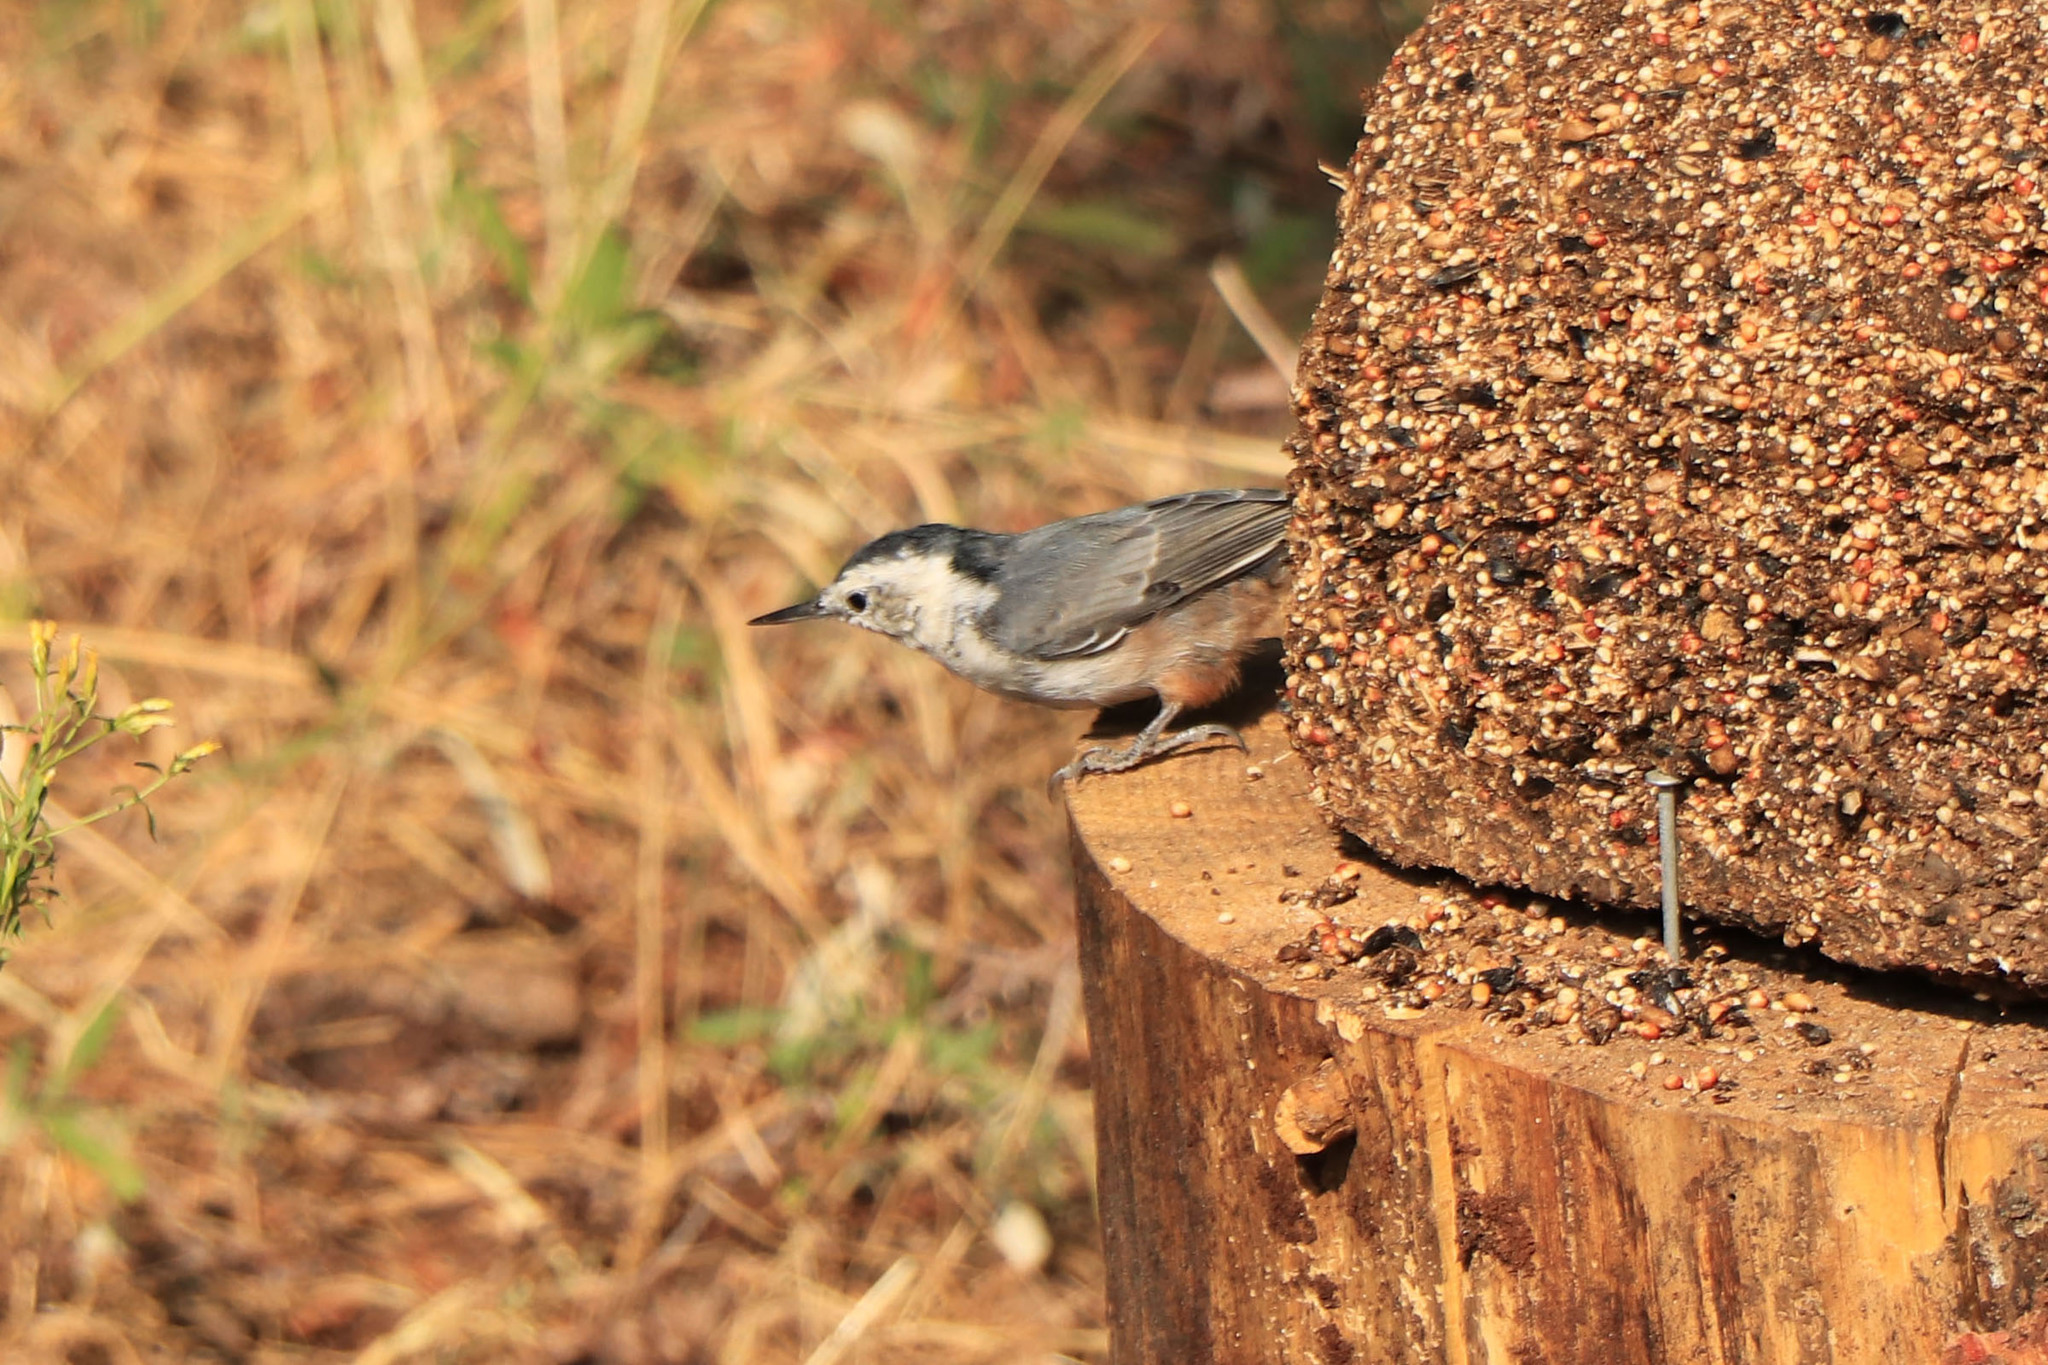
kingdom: Animalia
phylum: Chordata
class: Aves
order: Passeriformes
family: Sittidae
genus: Sitta
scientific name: Sitta carolinensis
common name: White-breasted nuthatch
